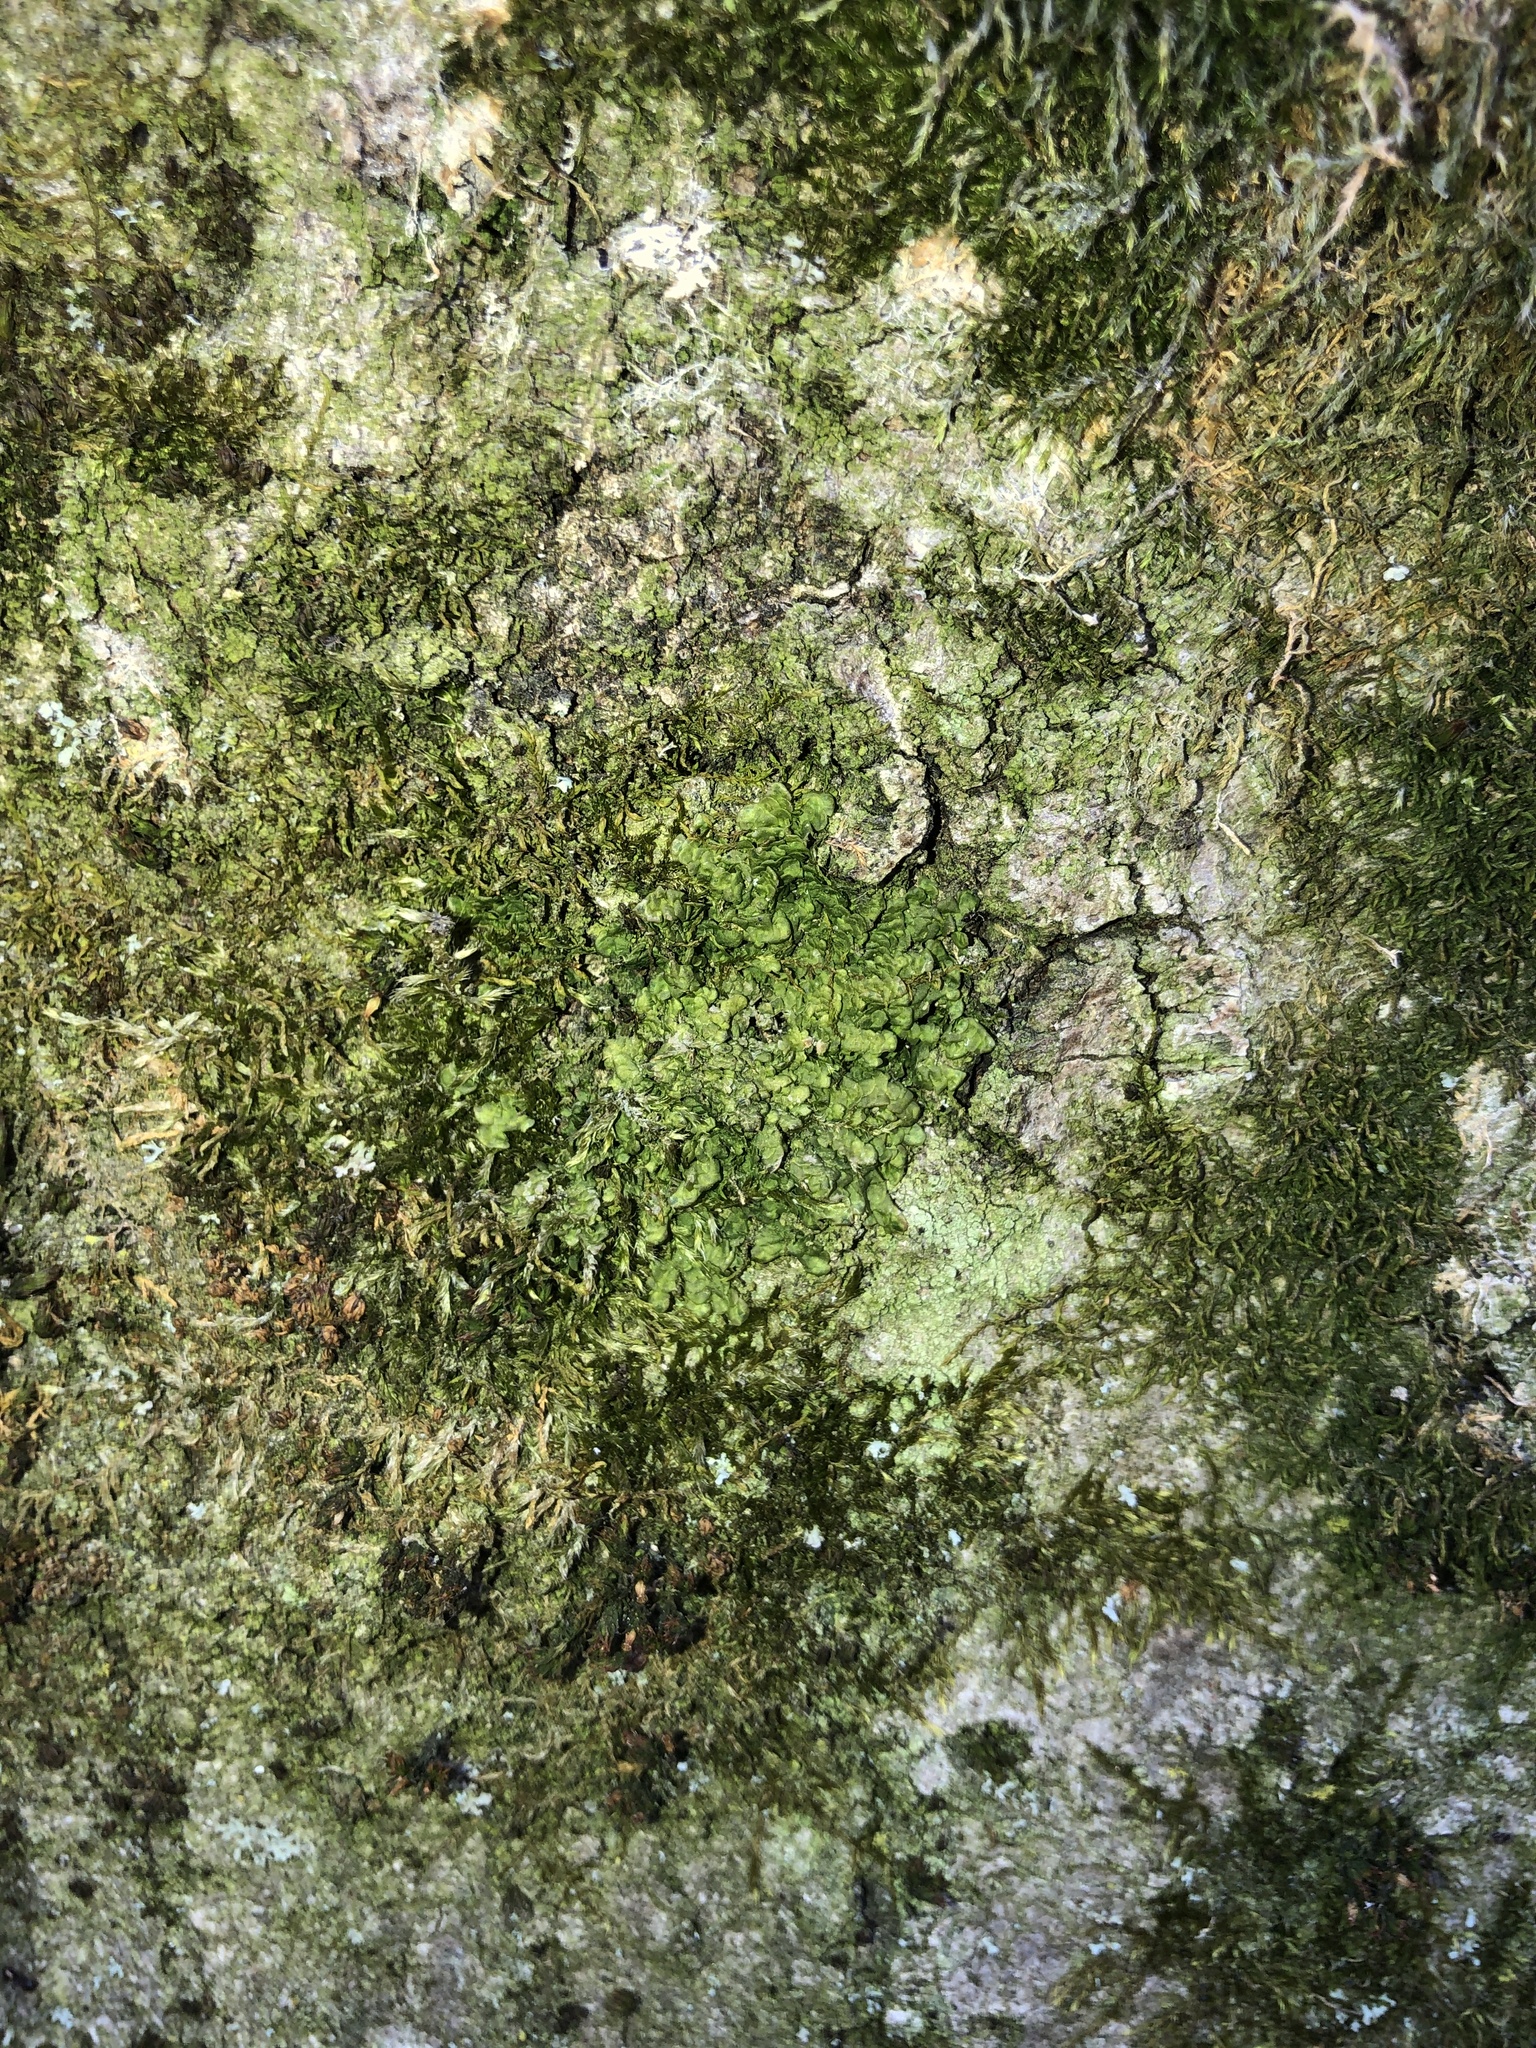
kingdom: Plantae
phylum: Marchantiophyta
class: Jungermanniopsida
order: Porellales
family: Radulaceae
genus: Radula
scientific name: Radula complanata
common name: Flat-leaved scalewort
